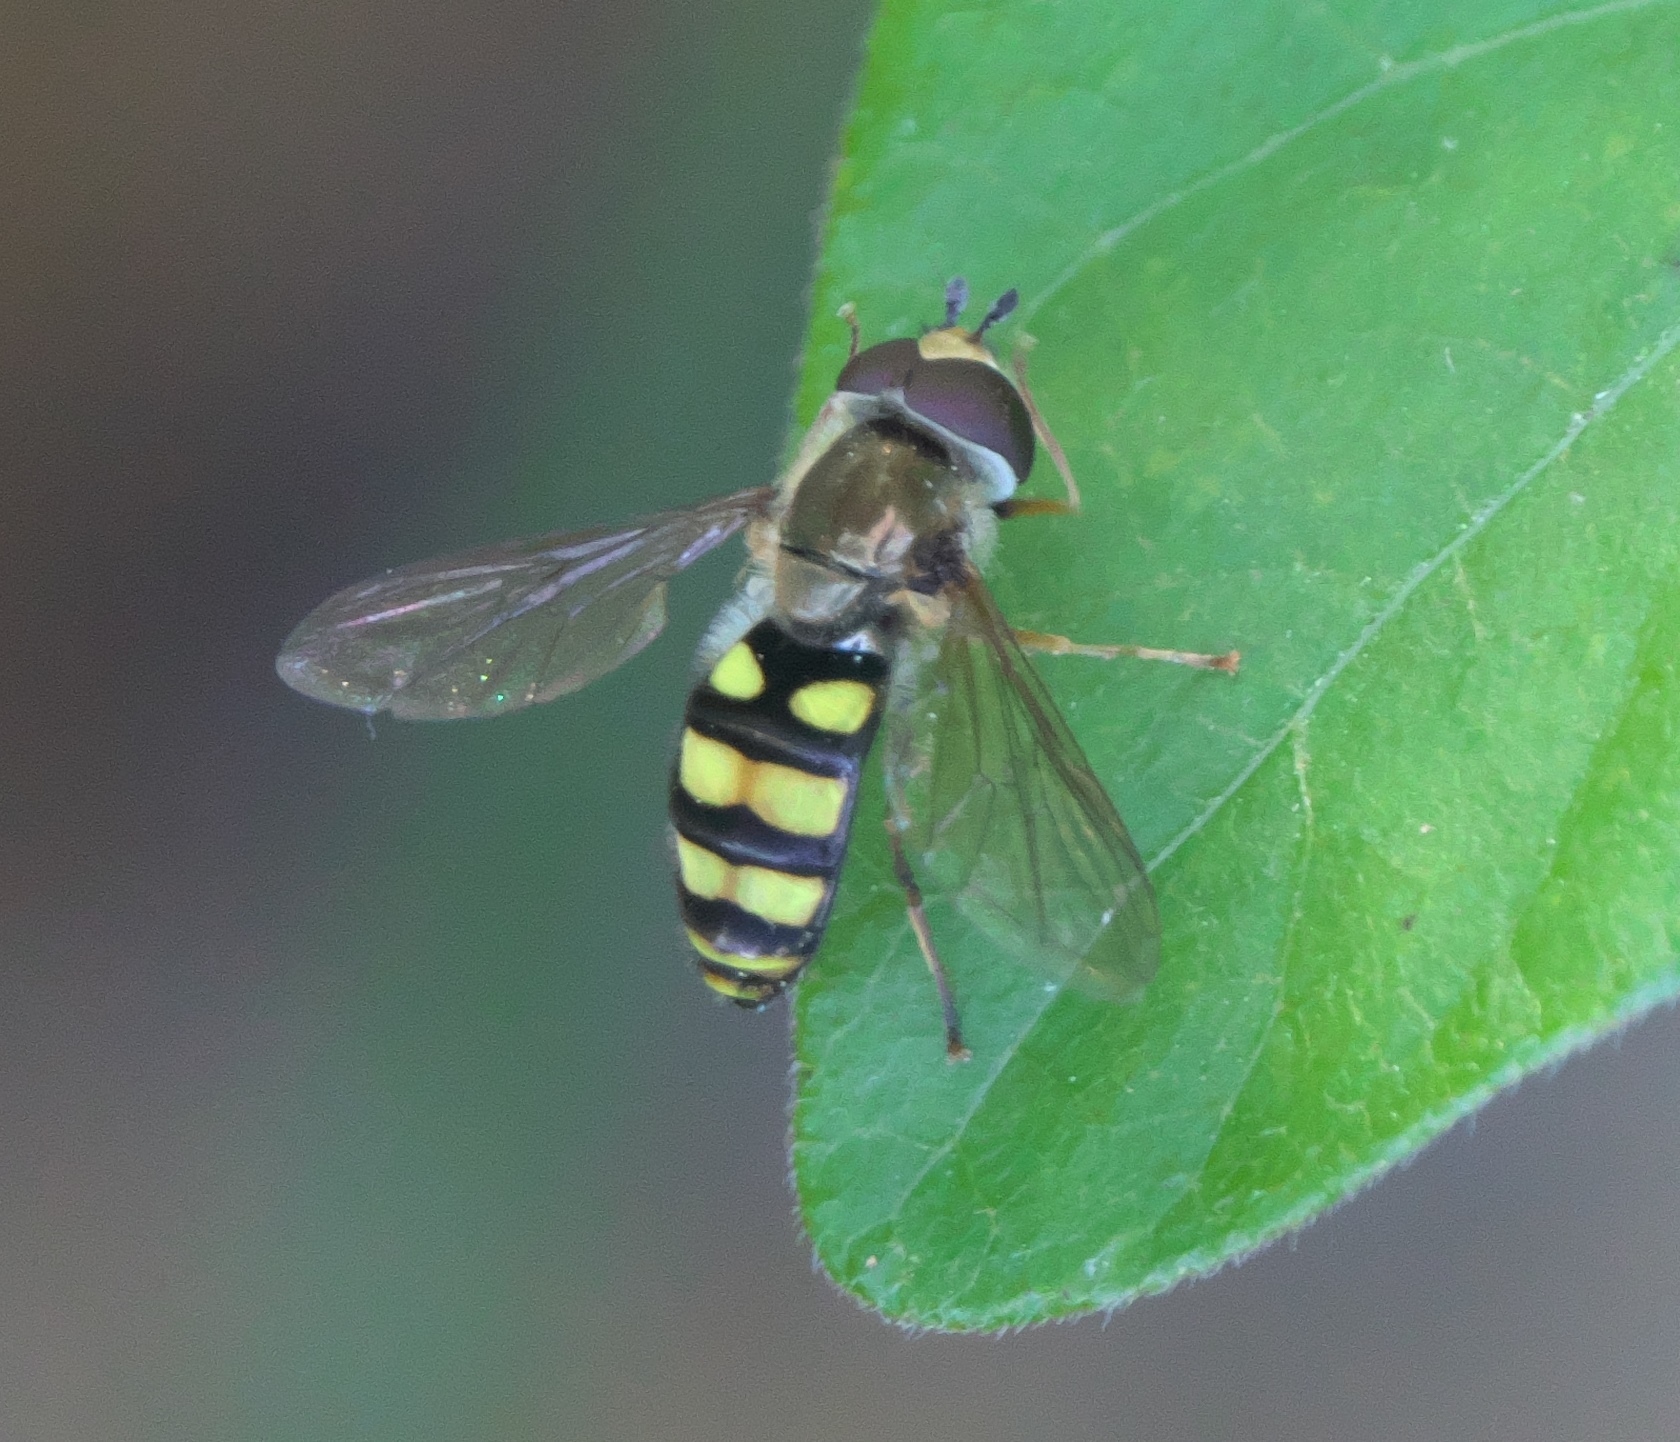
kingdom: Animalia
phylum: Arthropoda
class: Insecta
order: Diptera
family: Syrphidae
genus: Eupeodes
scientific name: Eupeodes
